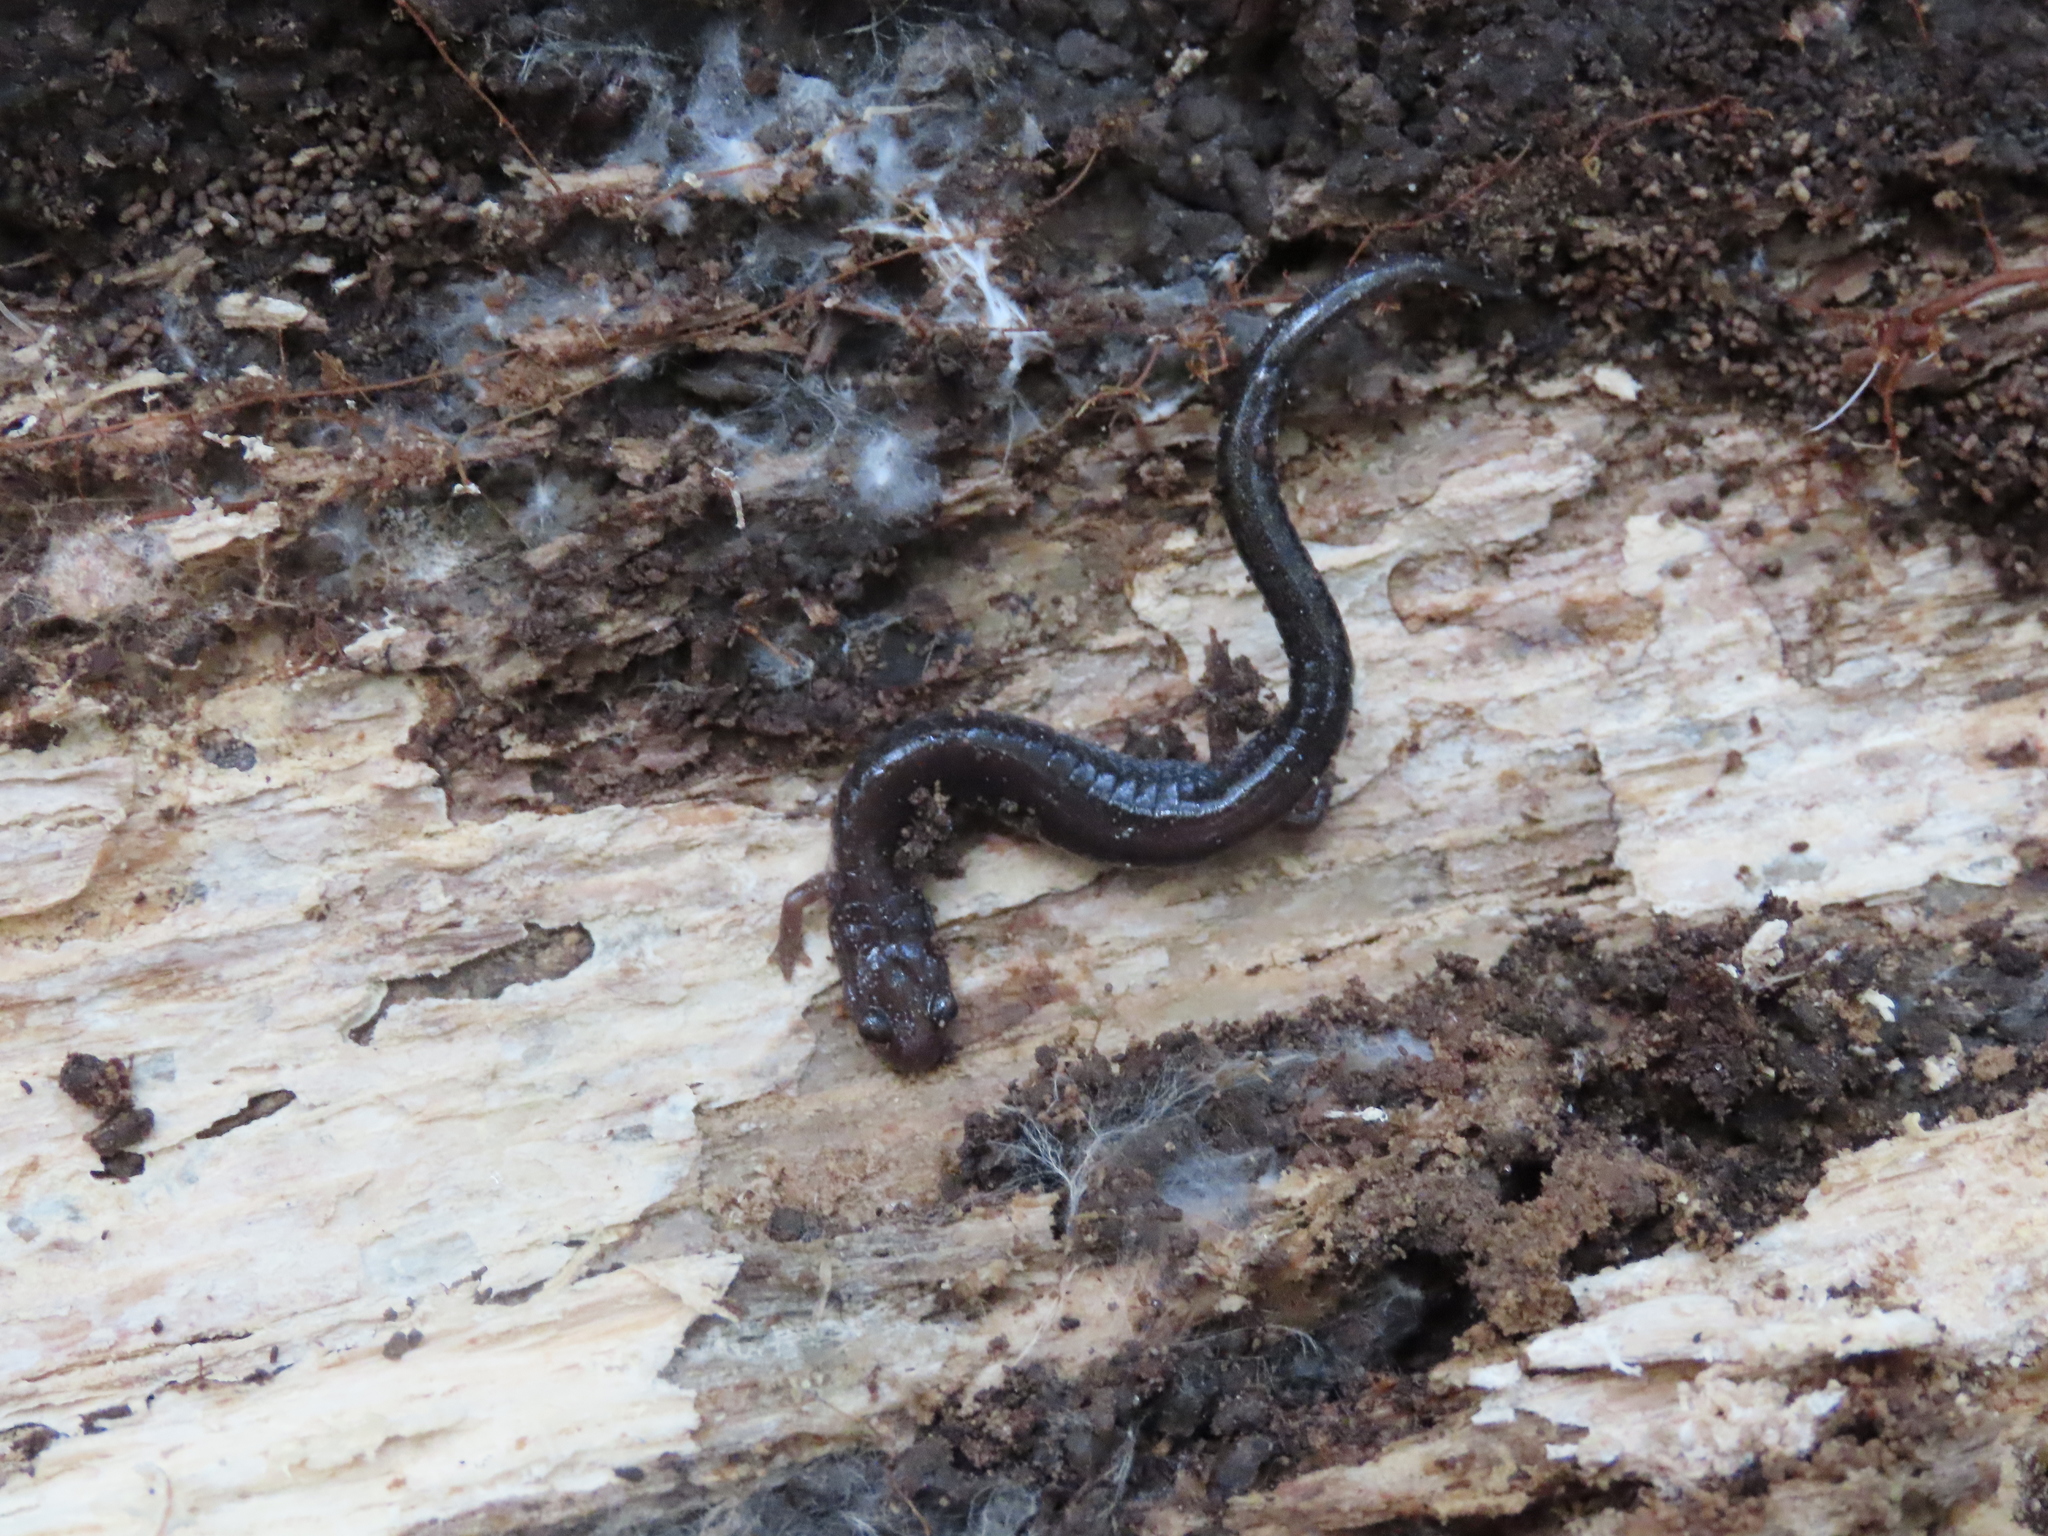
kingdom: Animalia
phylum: Chordata
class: Amphibia
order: Caudata
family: Plethodontidae
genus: Plethodon
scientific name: Plethodon cinereus
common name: Redback salamander
